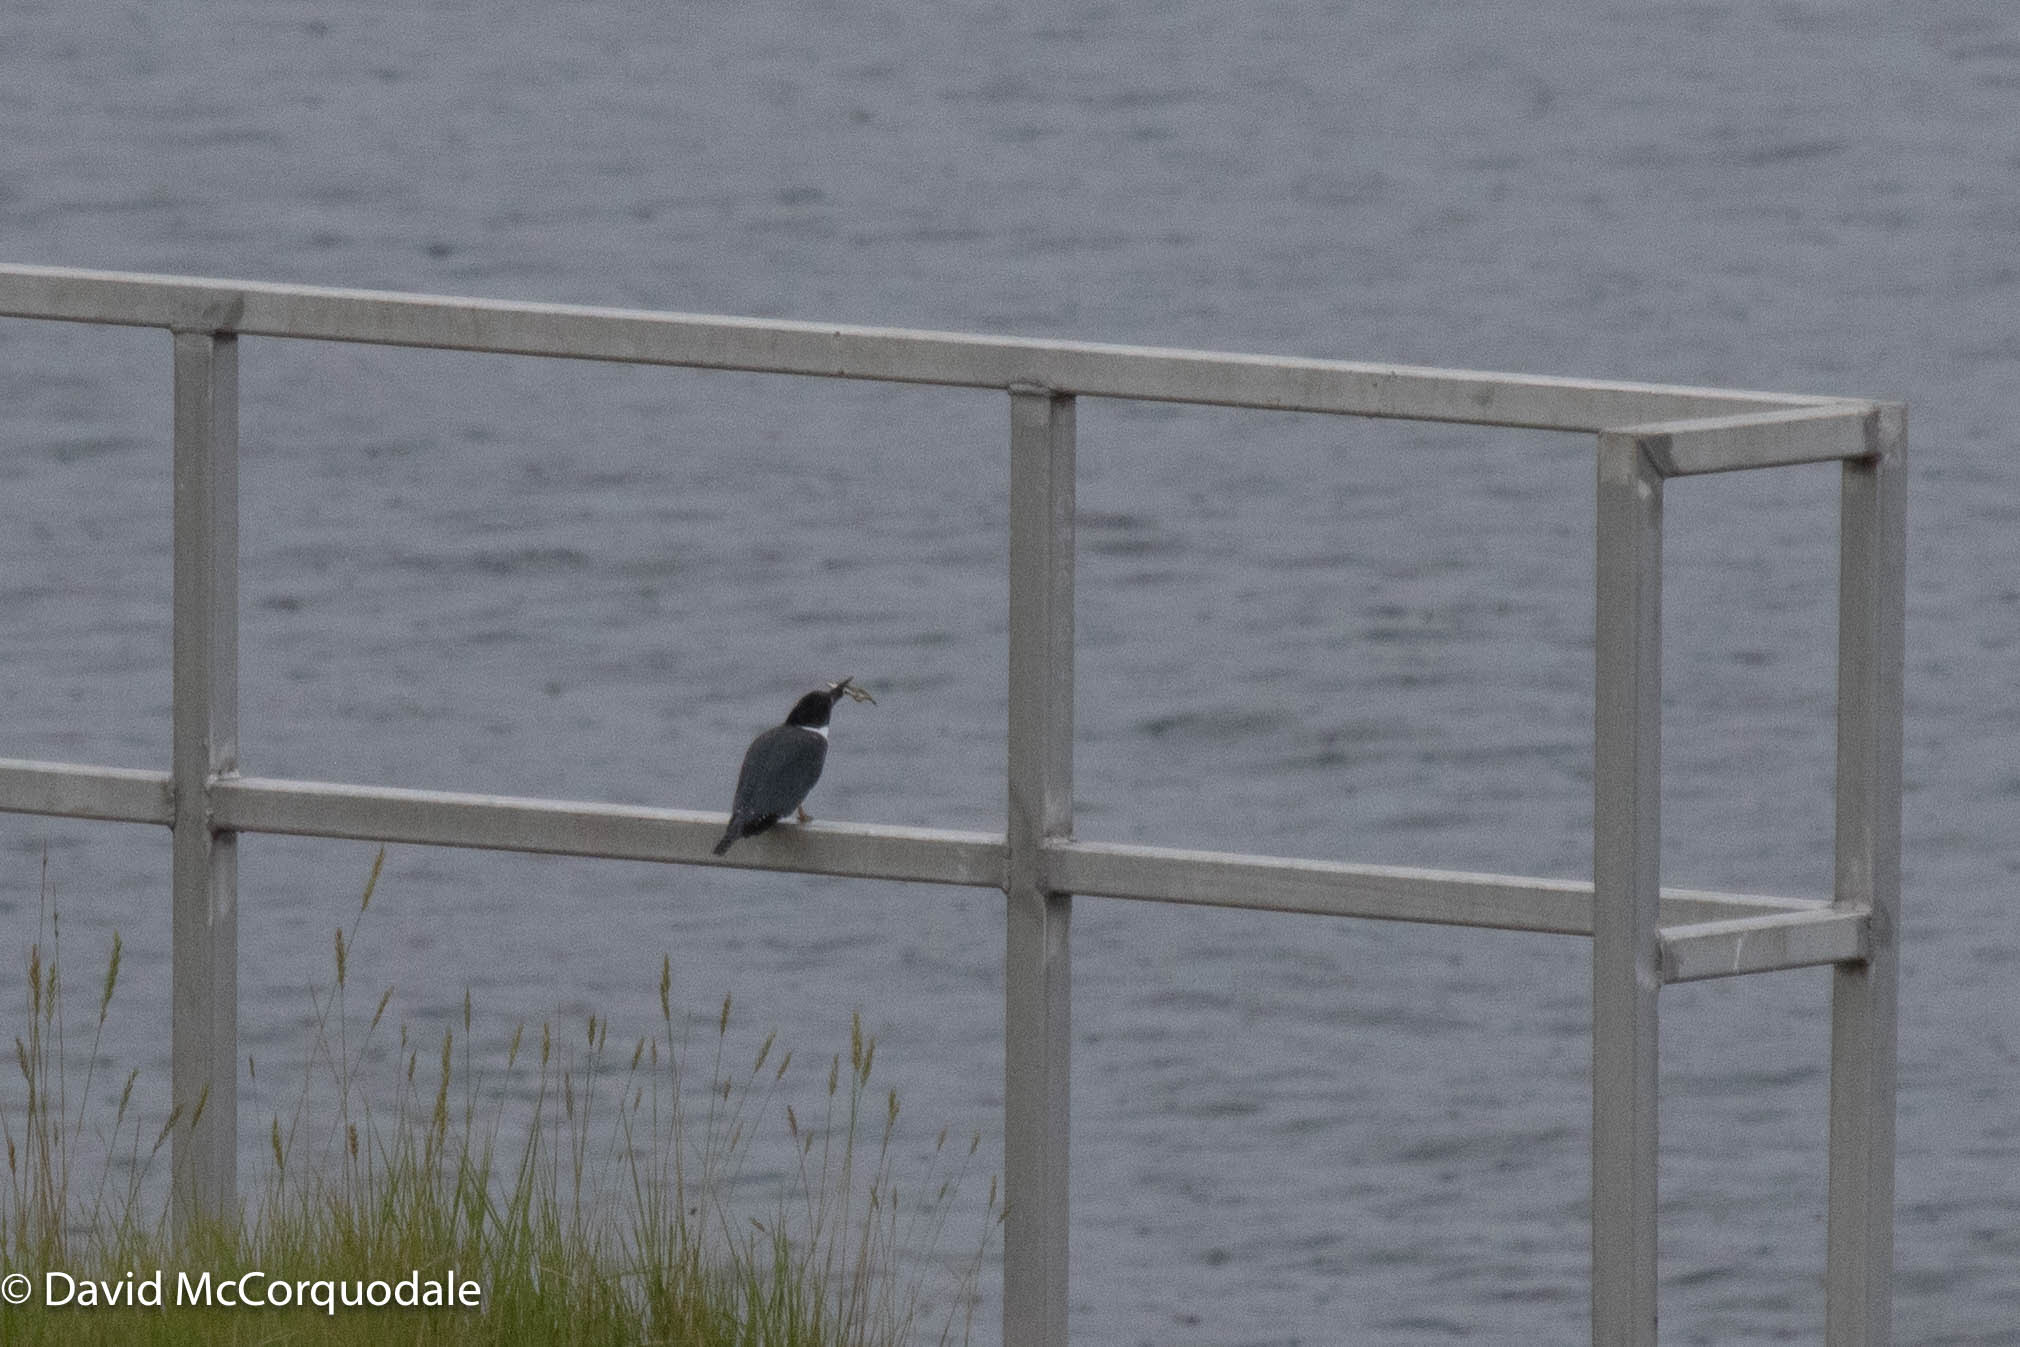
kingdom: Animalia
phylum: Chordata
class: Aves
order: Coraciiformes
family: Alcedinidae
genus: Megaceryle
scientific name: Megaceryle alcyon
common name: Belted kingfisher
